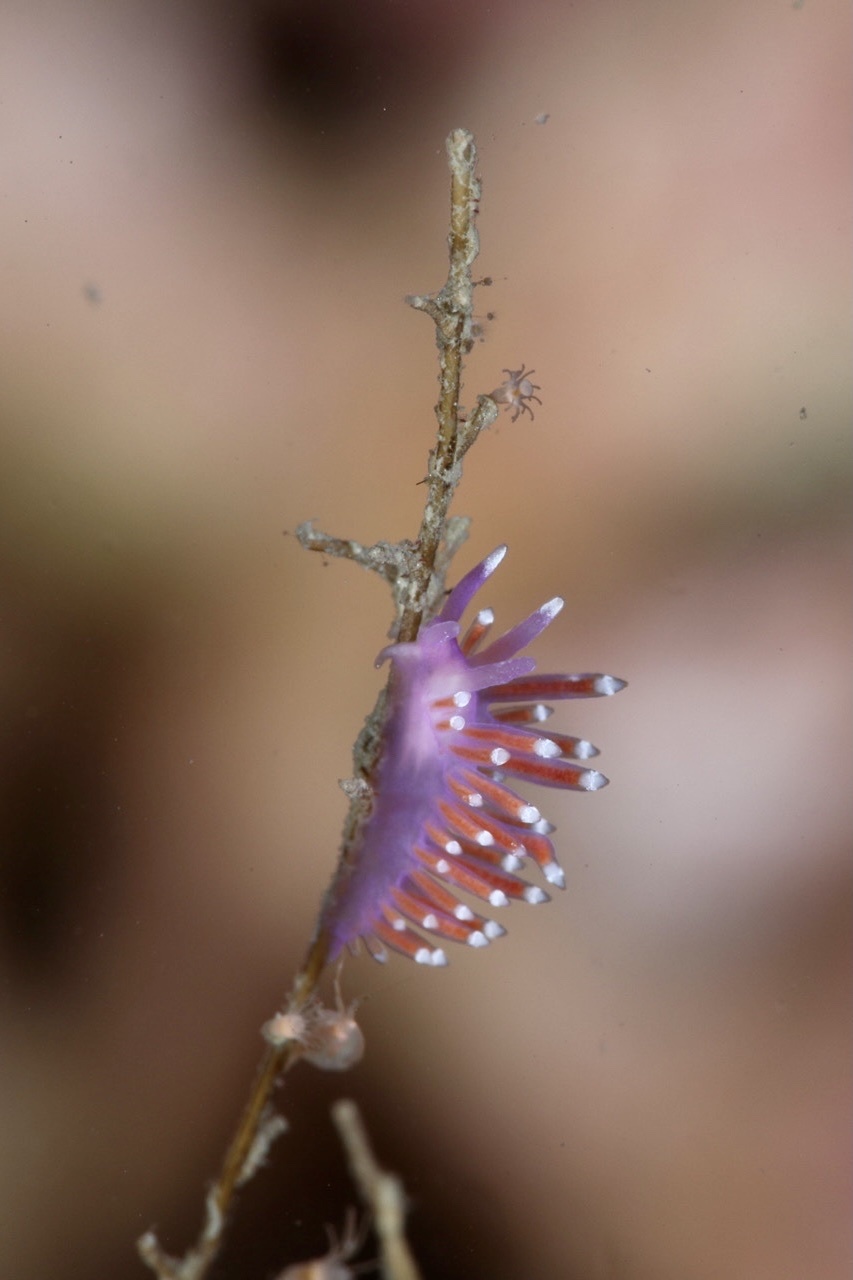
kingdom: Animalia
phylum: Mollusca
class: Gastropoda
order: Nudibranchia
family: Flabellinidae
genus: Edmundsella
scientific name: Edmundsella pedata
